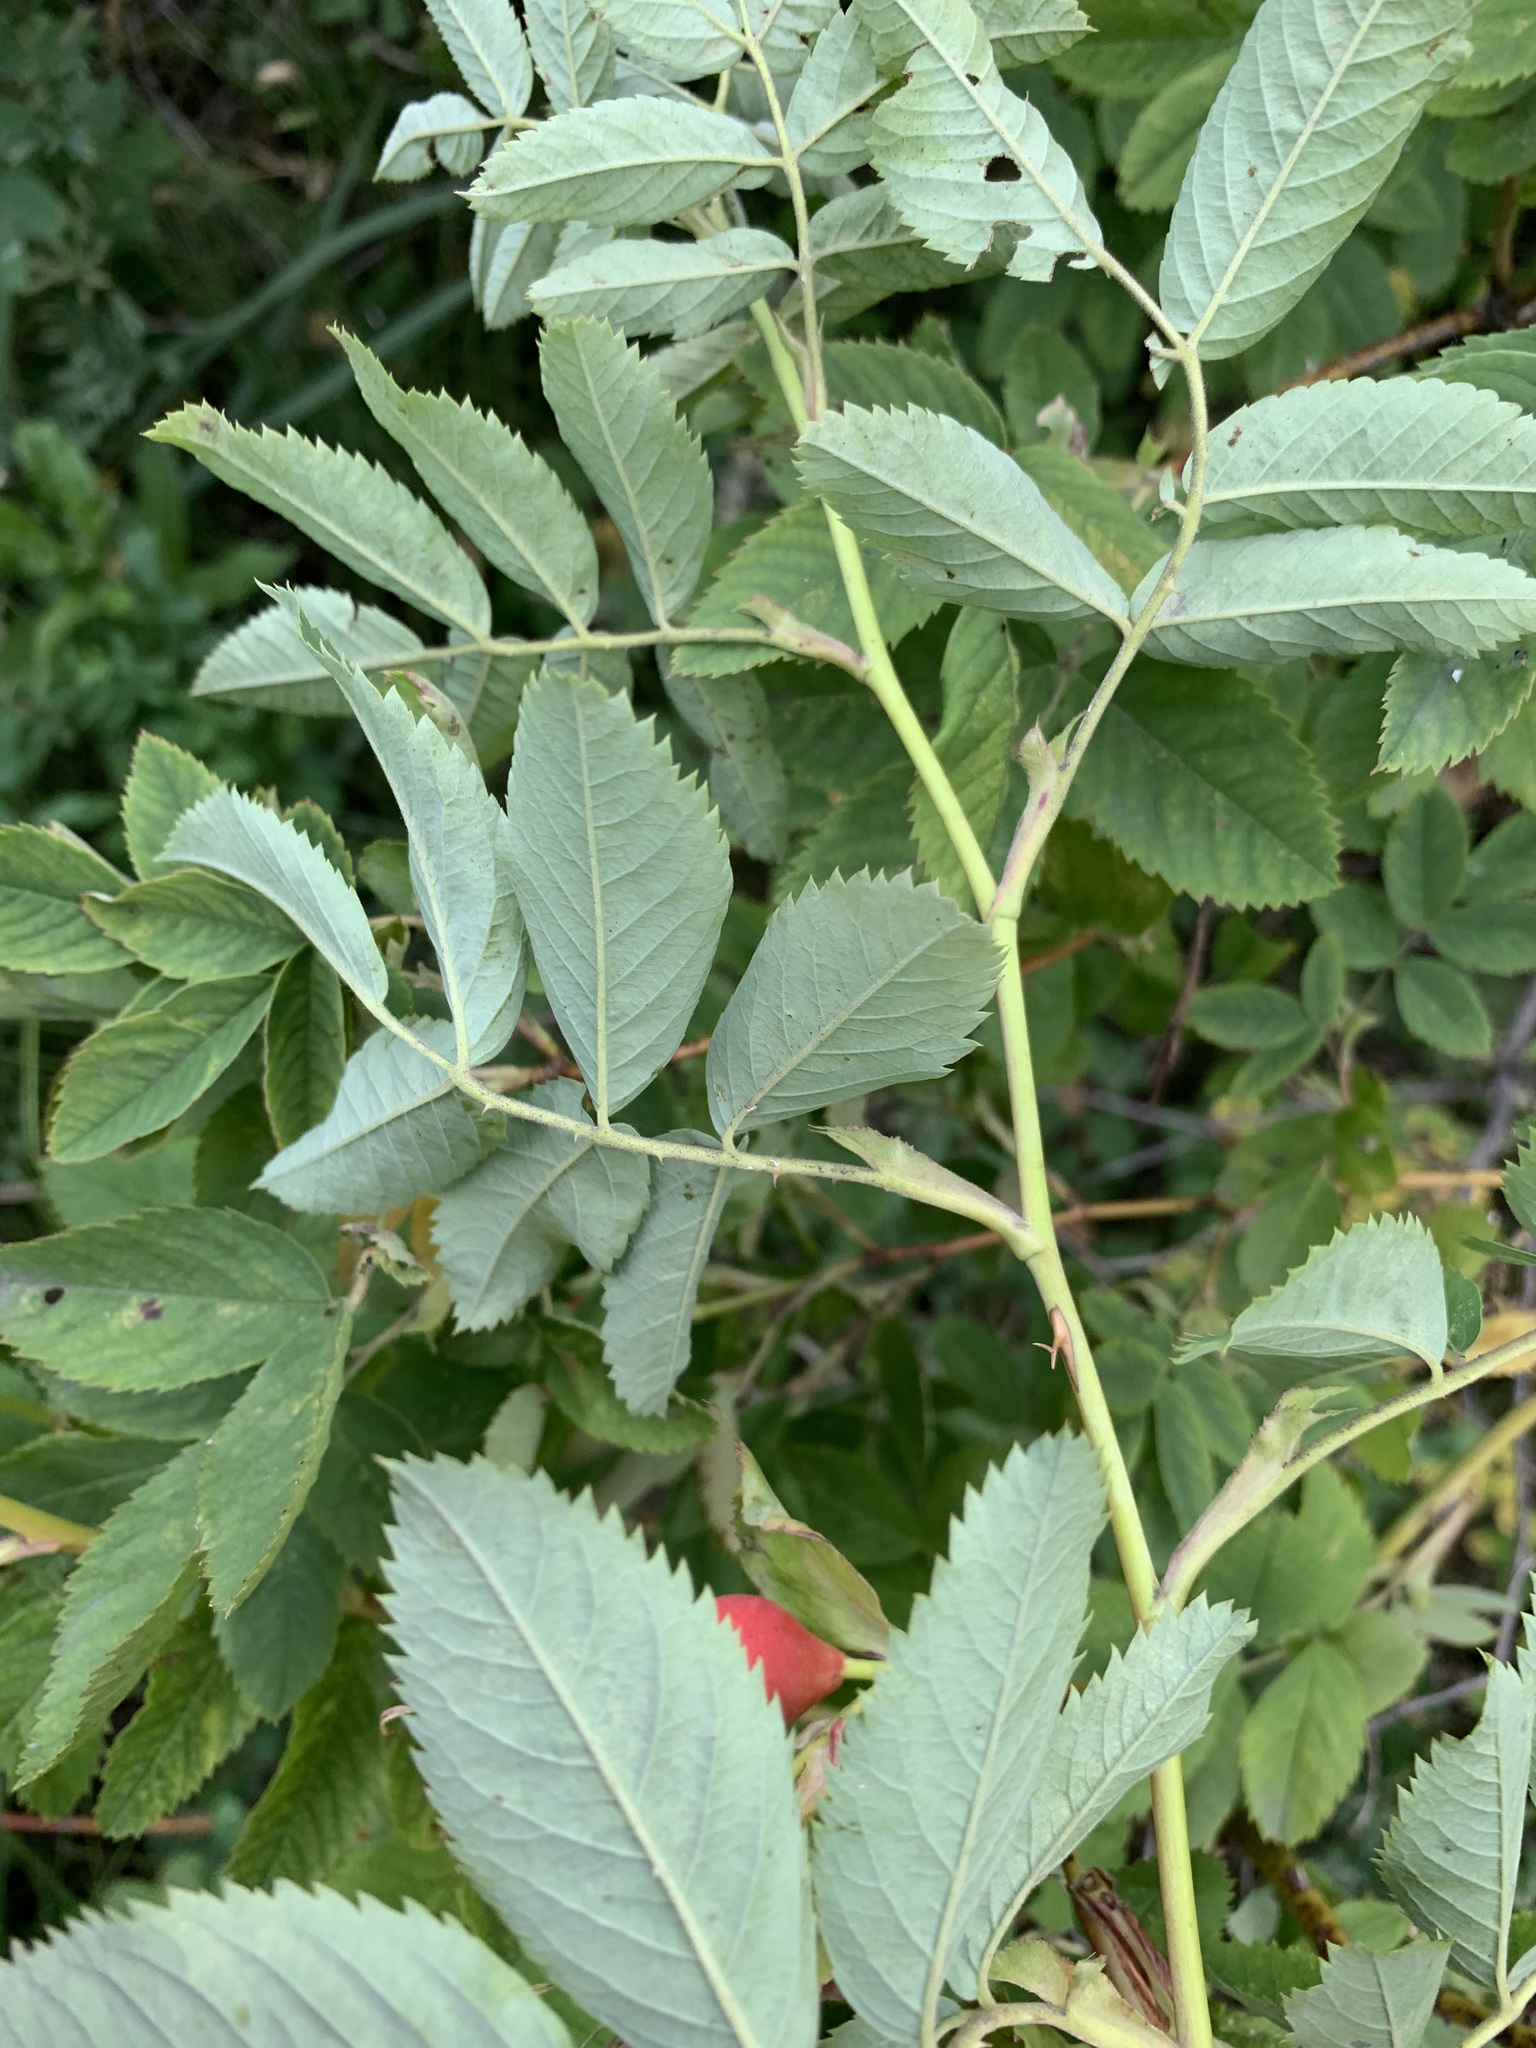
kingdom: Plantae
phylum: Tracheophyta
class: Magnoliopsida
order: Rosales
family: Rosaceae
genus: Rosa
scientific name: Rosa majalis
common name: Cinnamon rose
